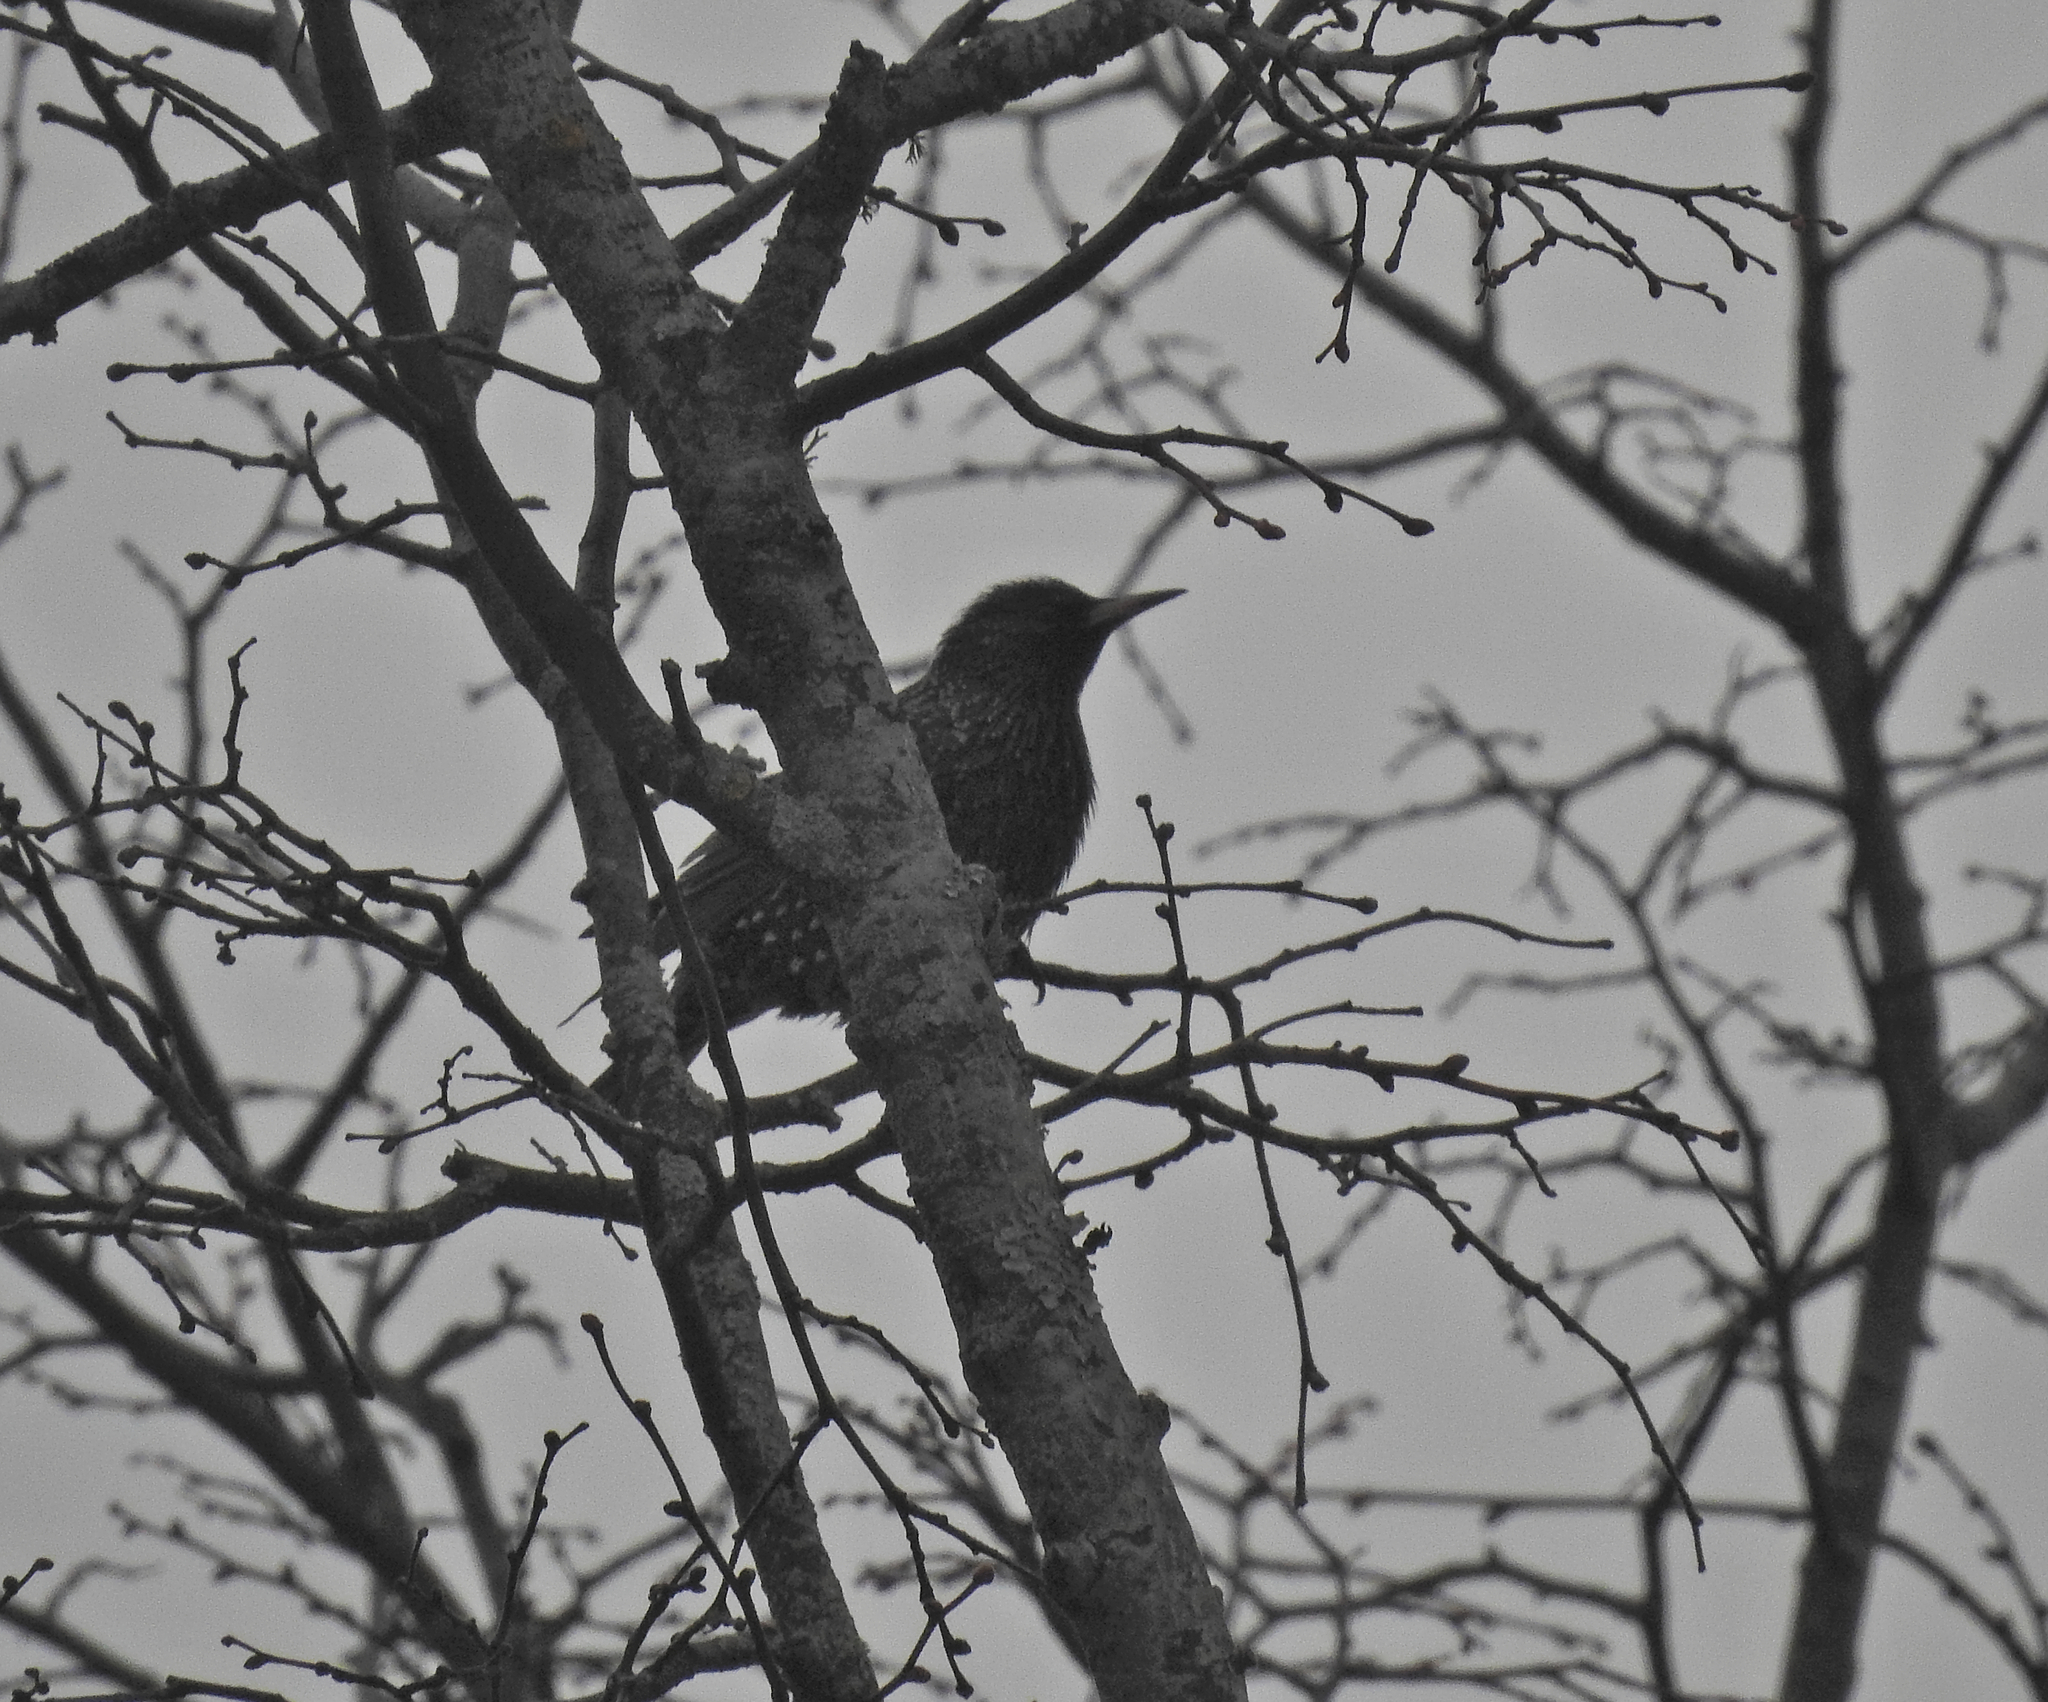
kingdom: Animalia
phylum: Chordata
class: Aves
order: Passeriformes
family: Sturnidae
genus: Sturnus
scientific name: Sturnus vulgaris
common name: Common starling
